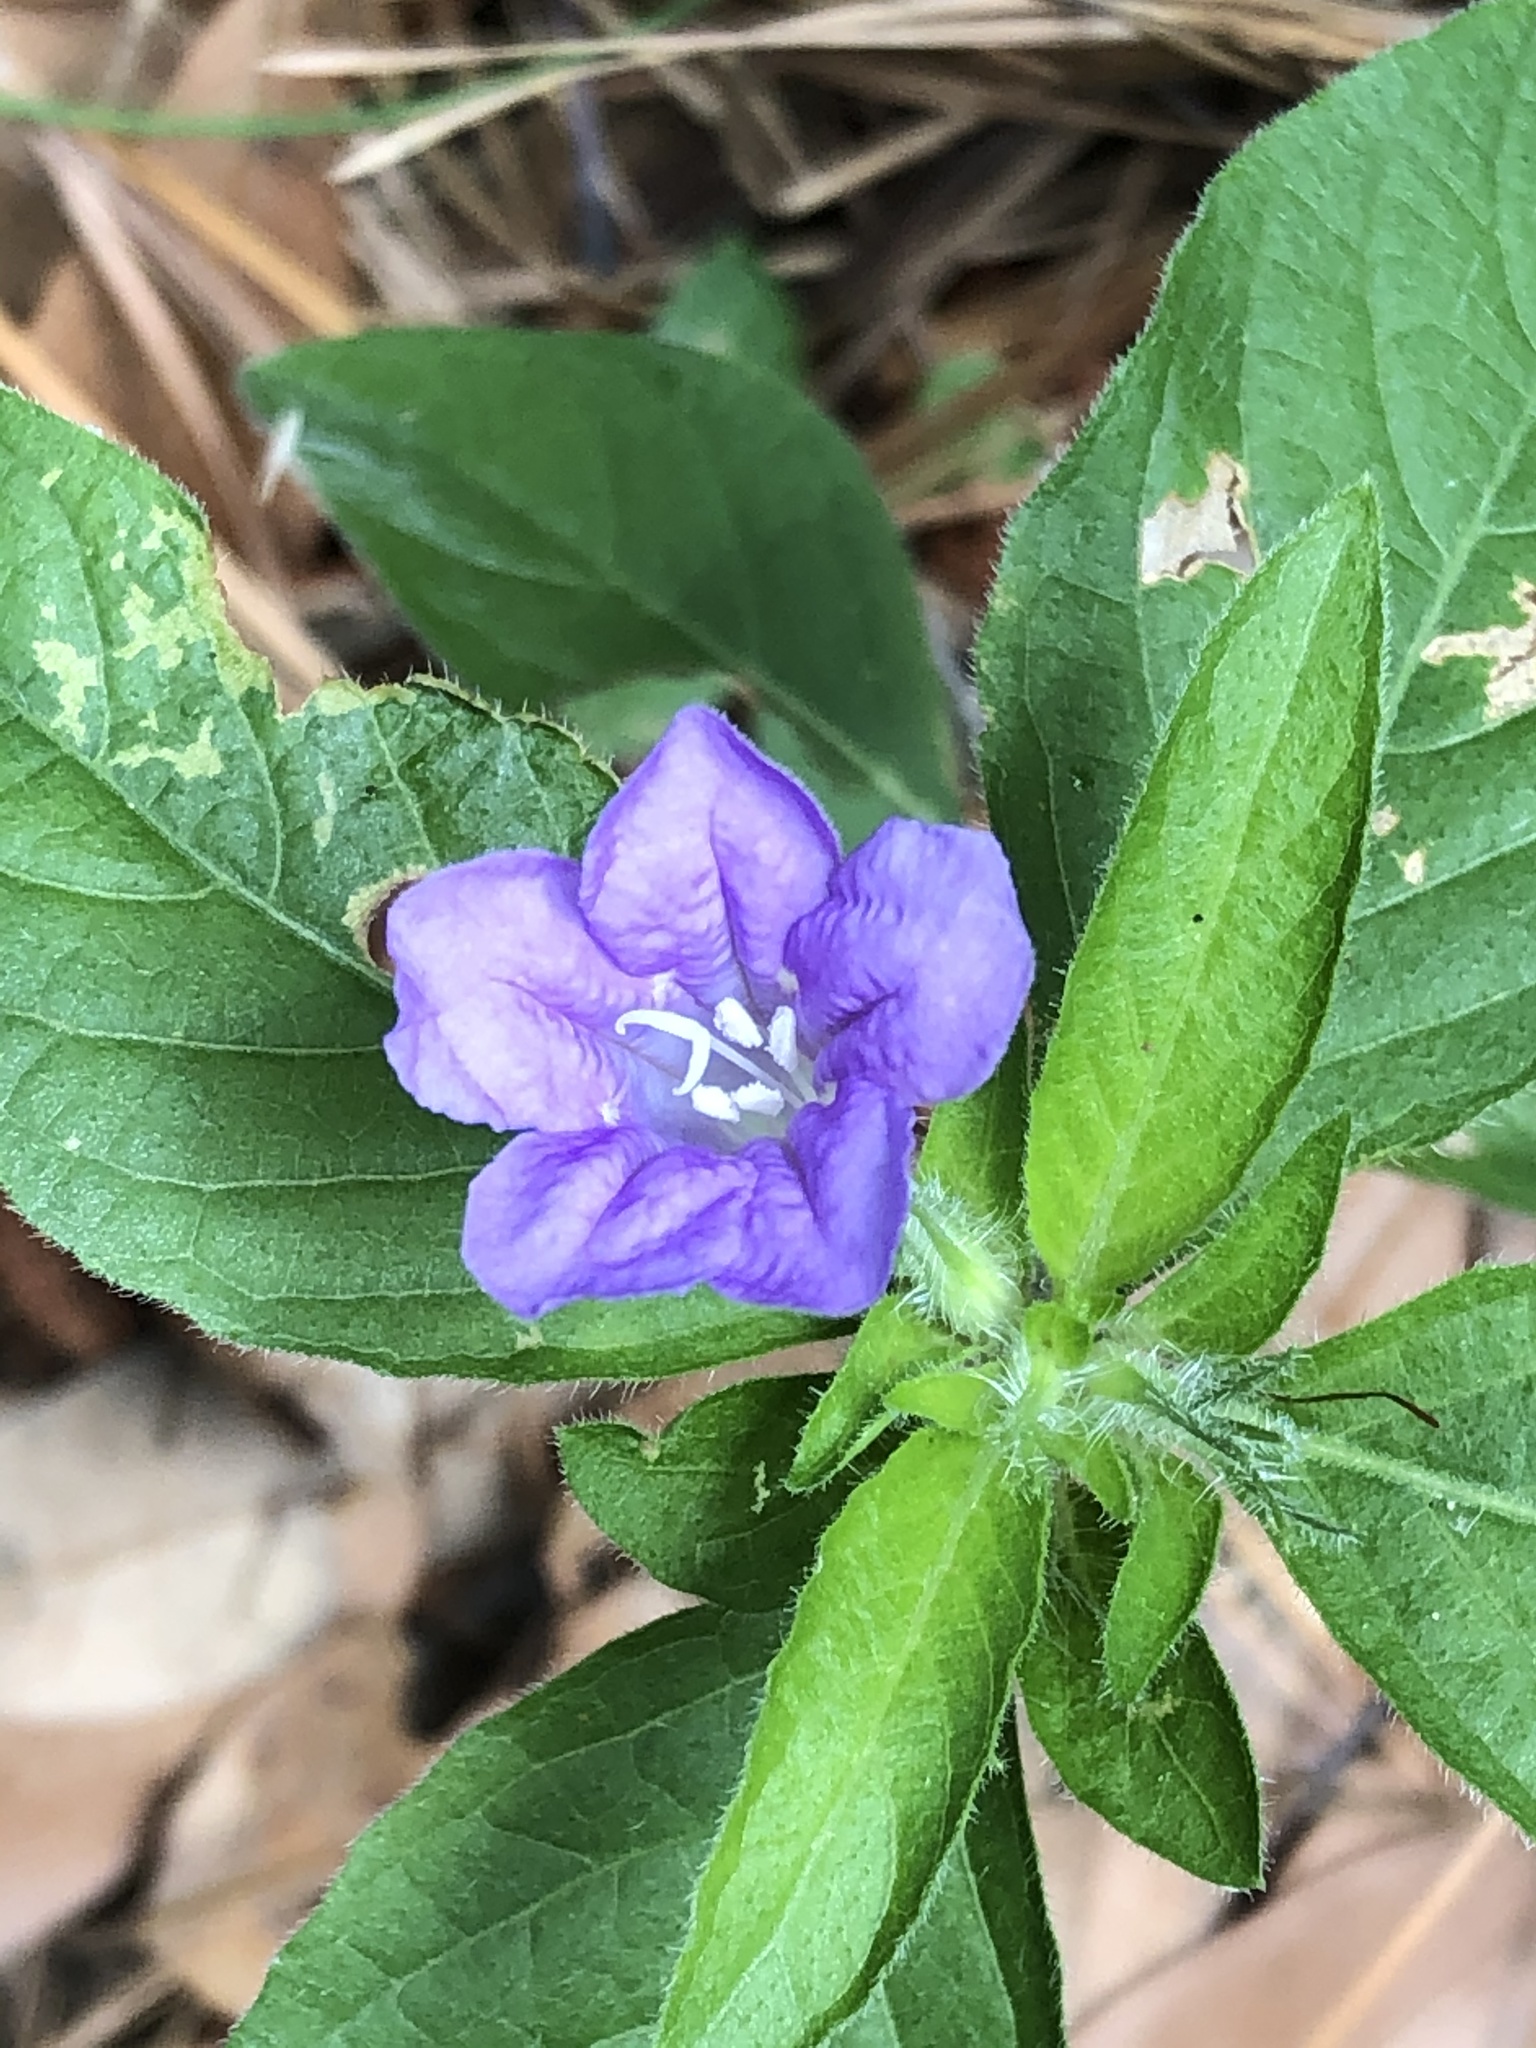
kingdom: Plantae
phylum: Tracheophyta
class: Magnoliopsida
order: Lamiales
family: Acanthaceae
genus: Ruellia
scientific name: Ruellia caroliniensis
